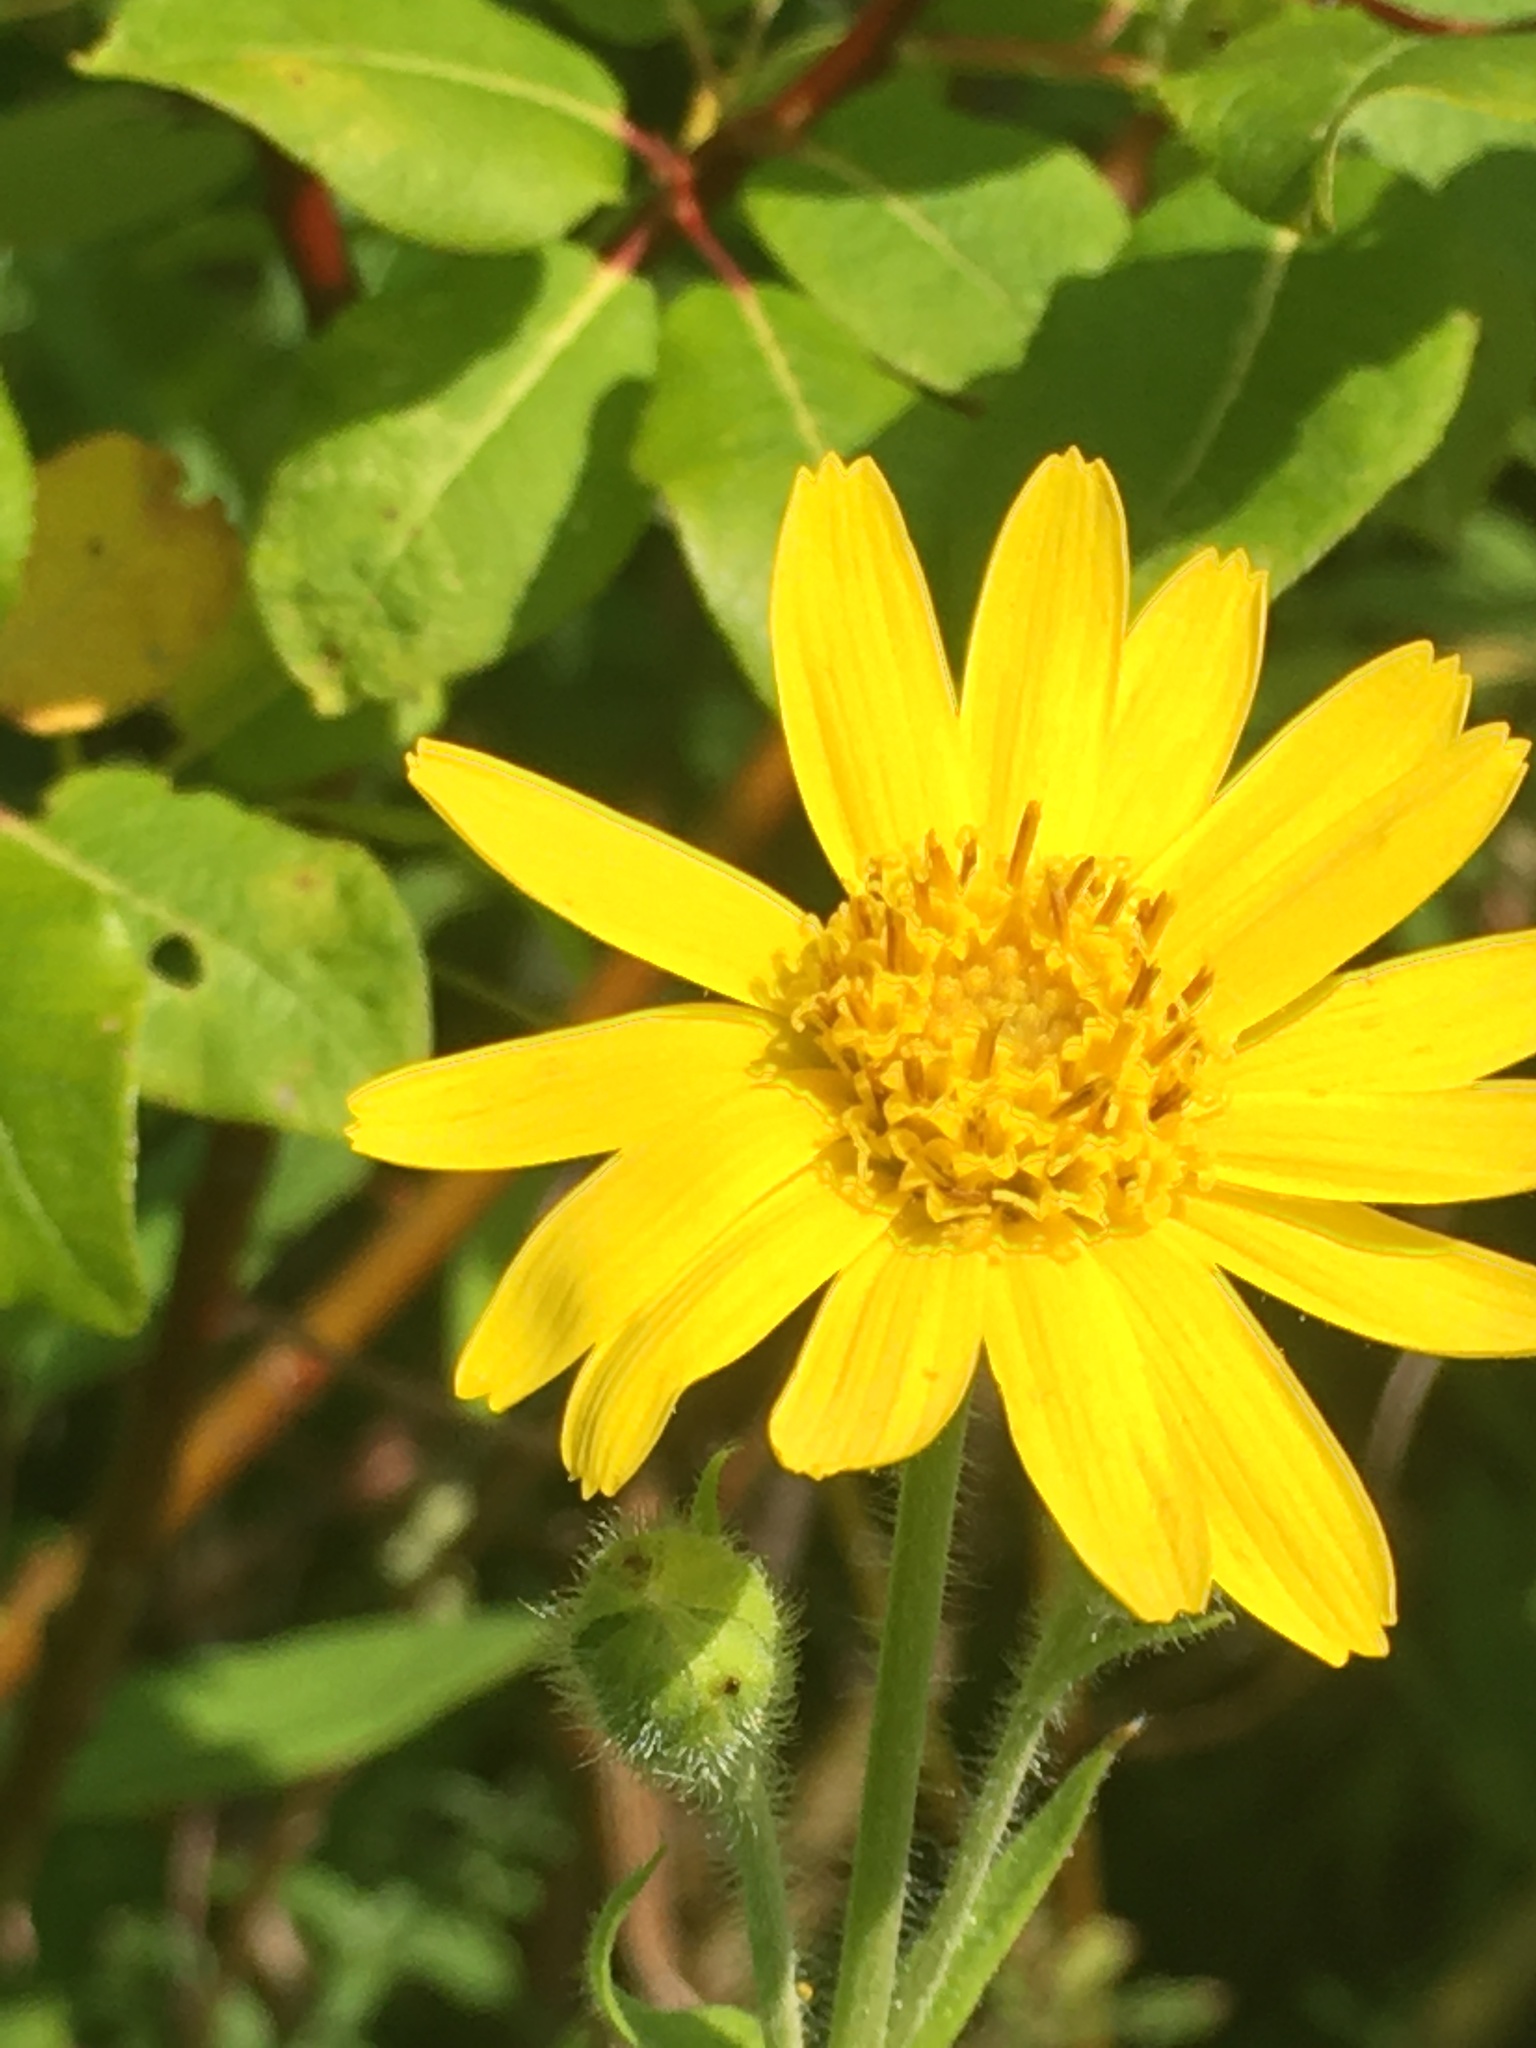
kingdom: Plantae
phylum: Tracheophyta
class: Magnoliopsida
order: Asterales
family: Asteraceae
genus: Arnica
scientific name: Arnica lanceolata
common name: Lance-leaved arnica
